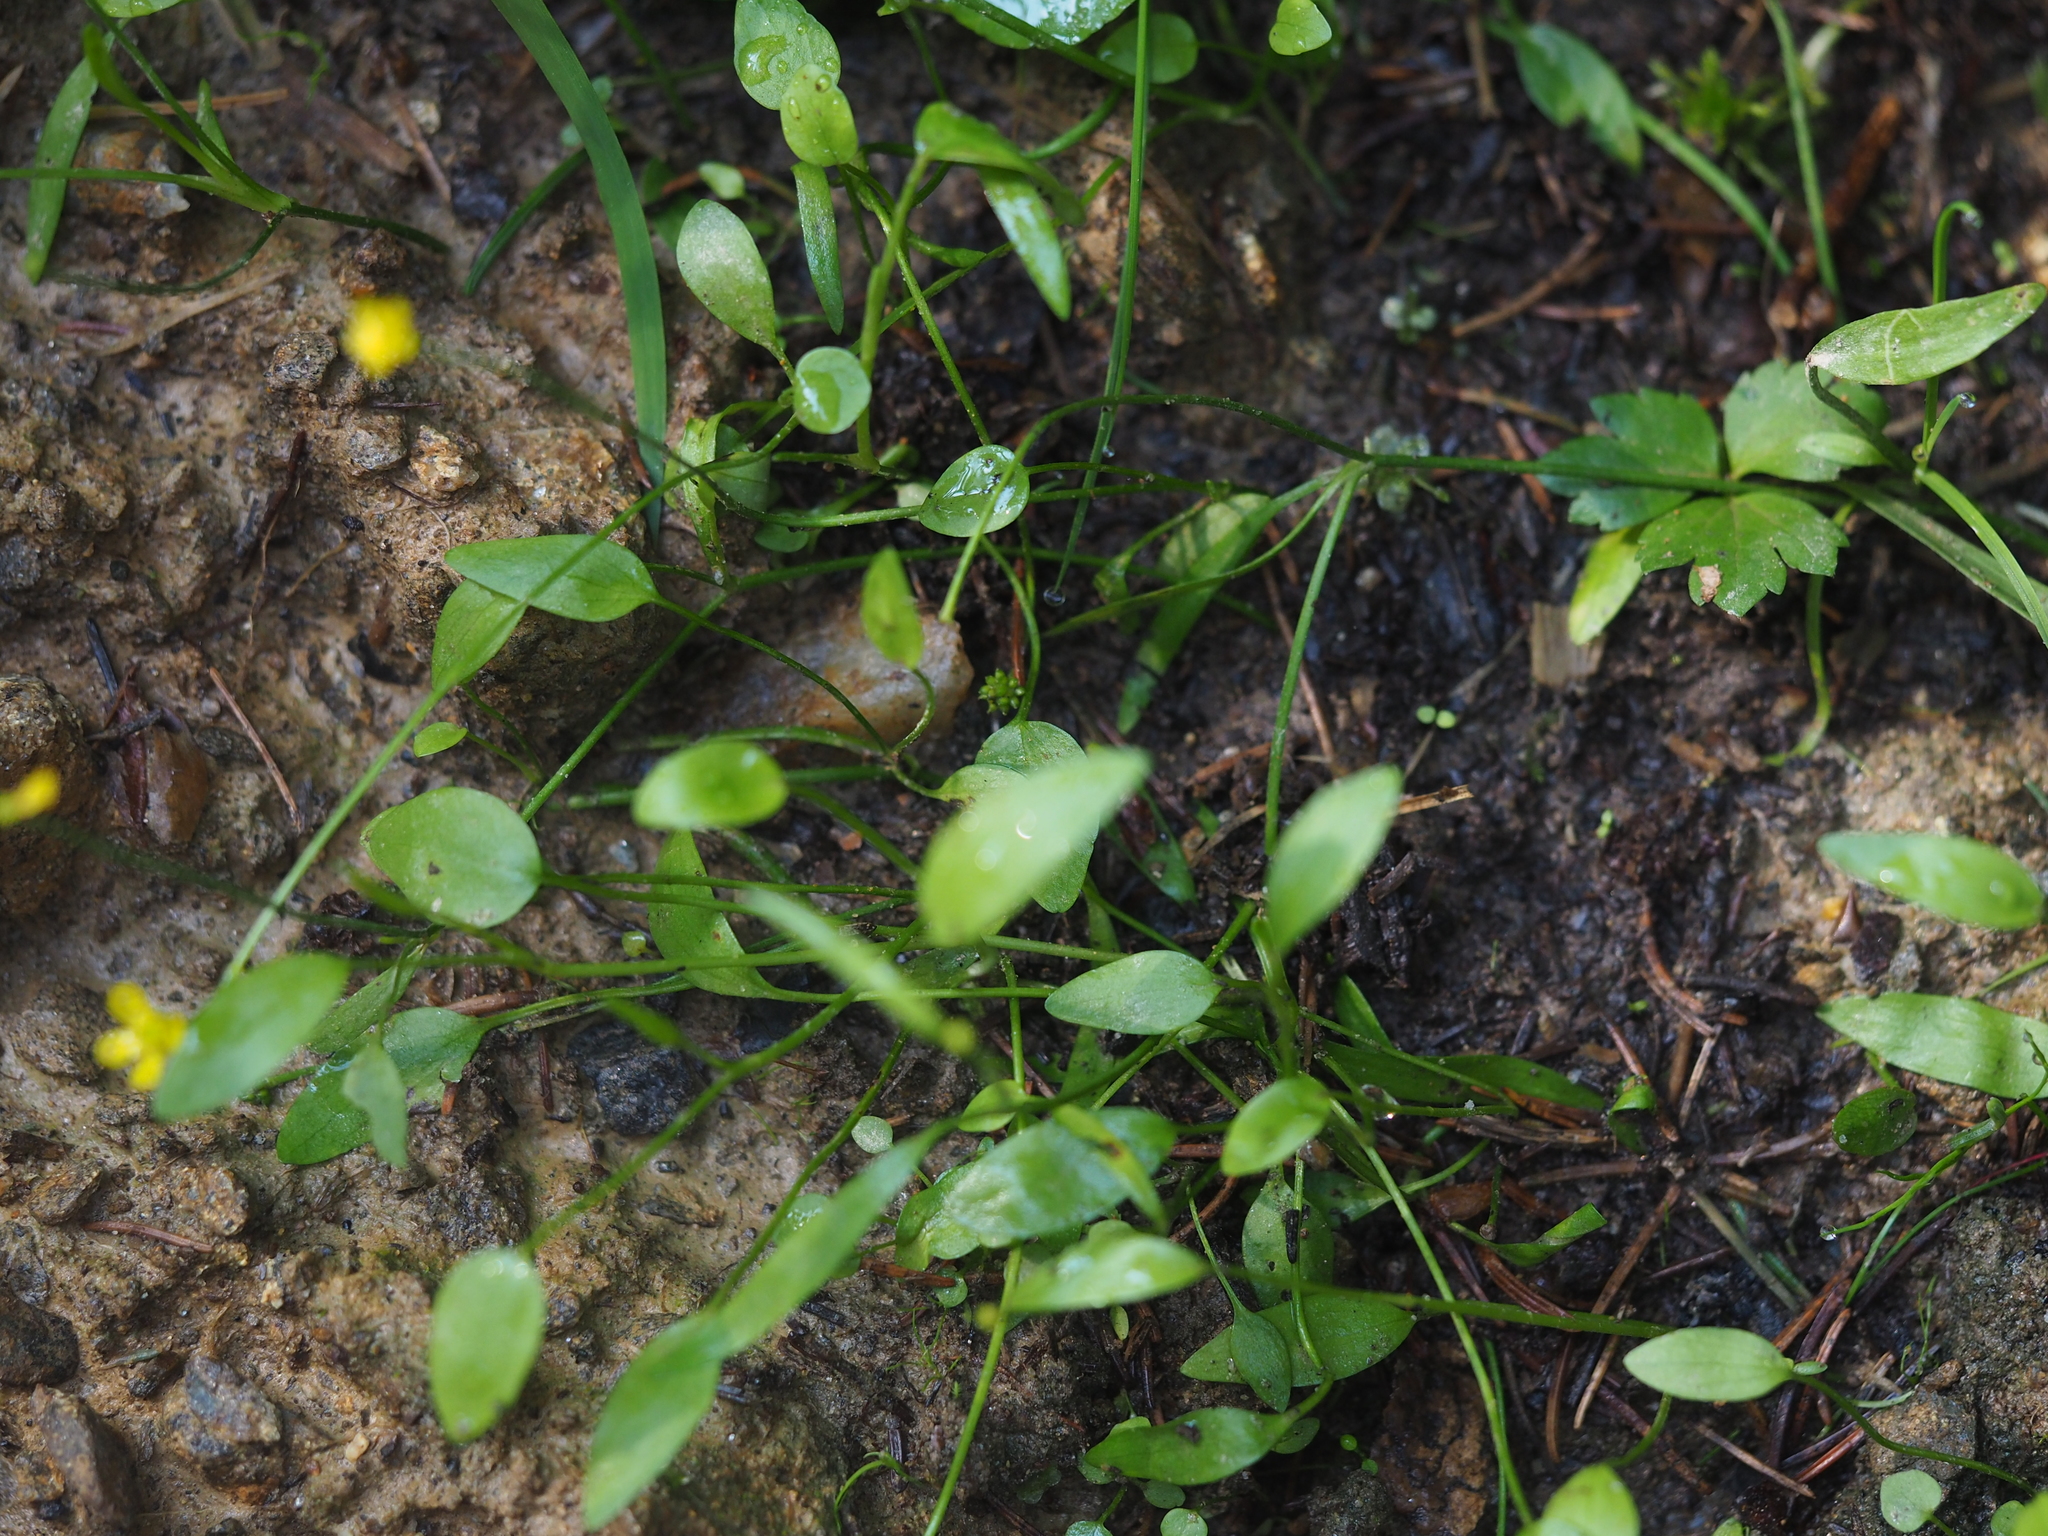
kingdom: Plantae
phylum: Tracheophyta
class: Magnoliopsida
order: Ranunculales
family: Ranunculaceae
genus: Ranunculus
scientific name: Ranunculus flammula
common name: Lesser spearwort
